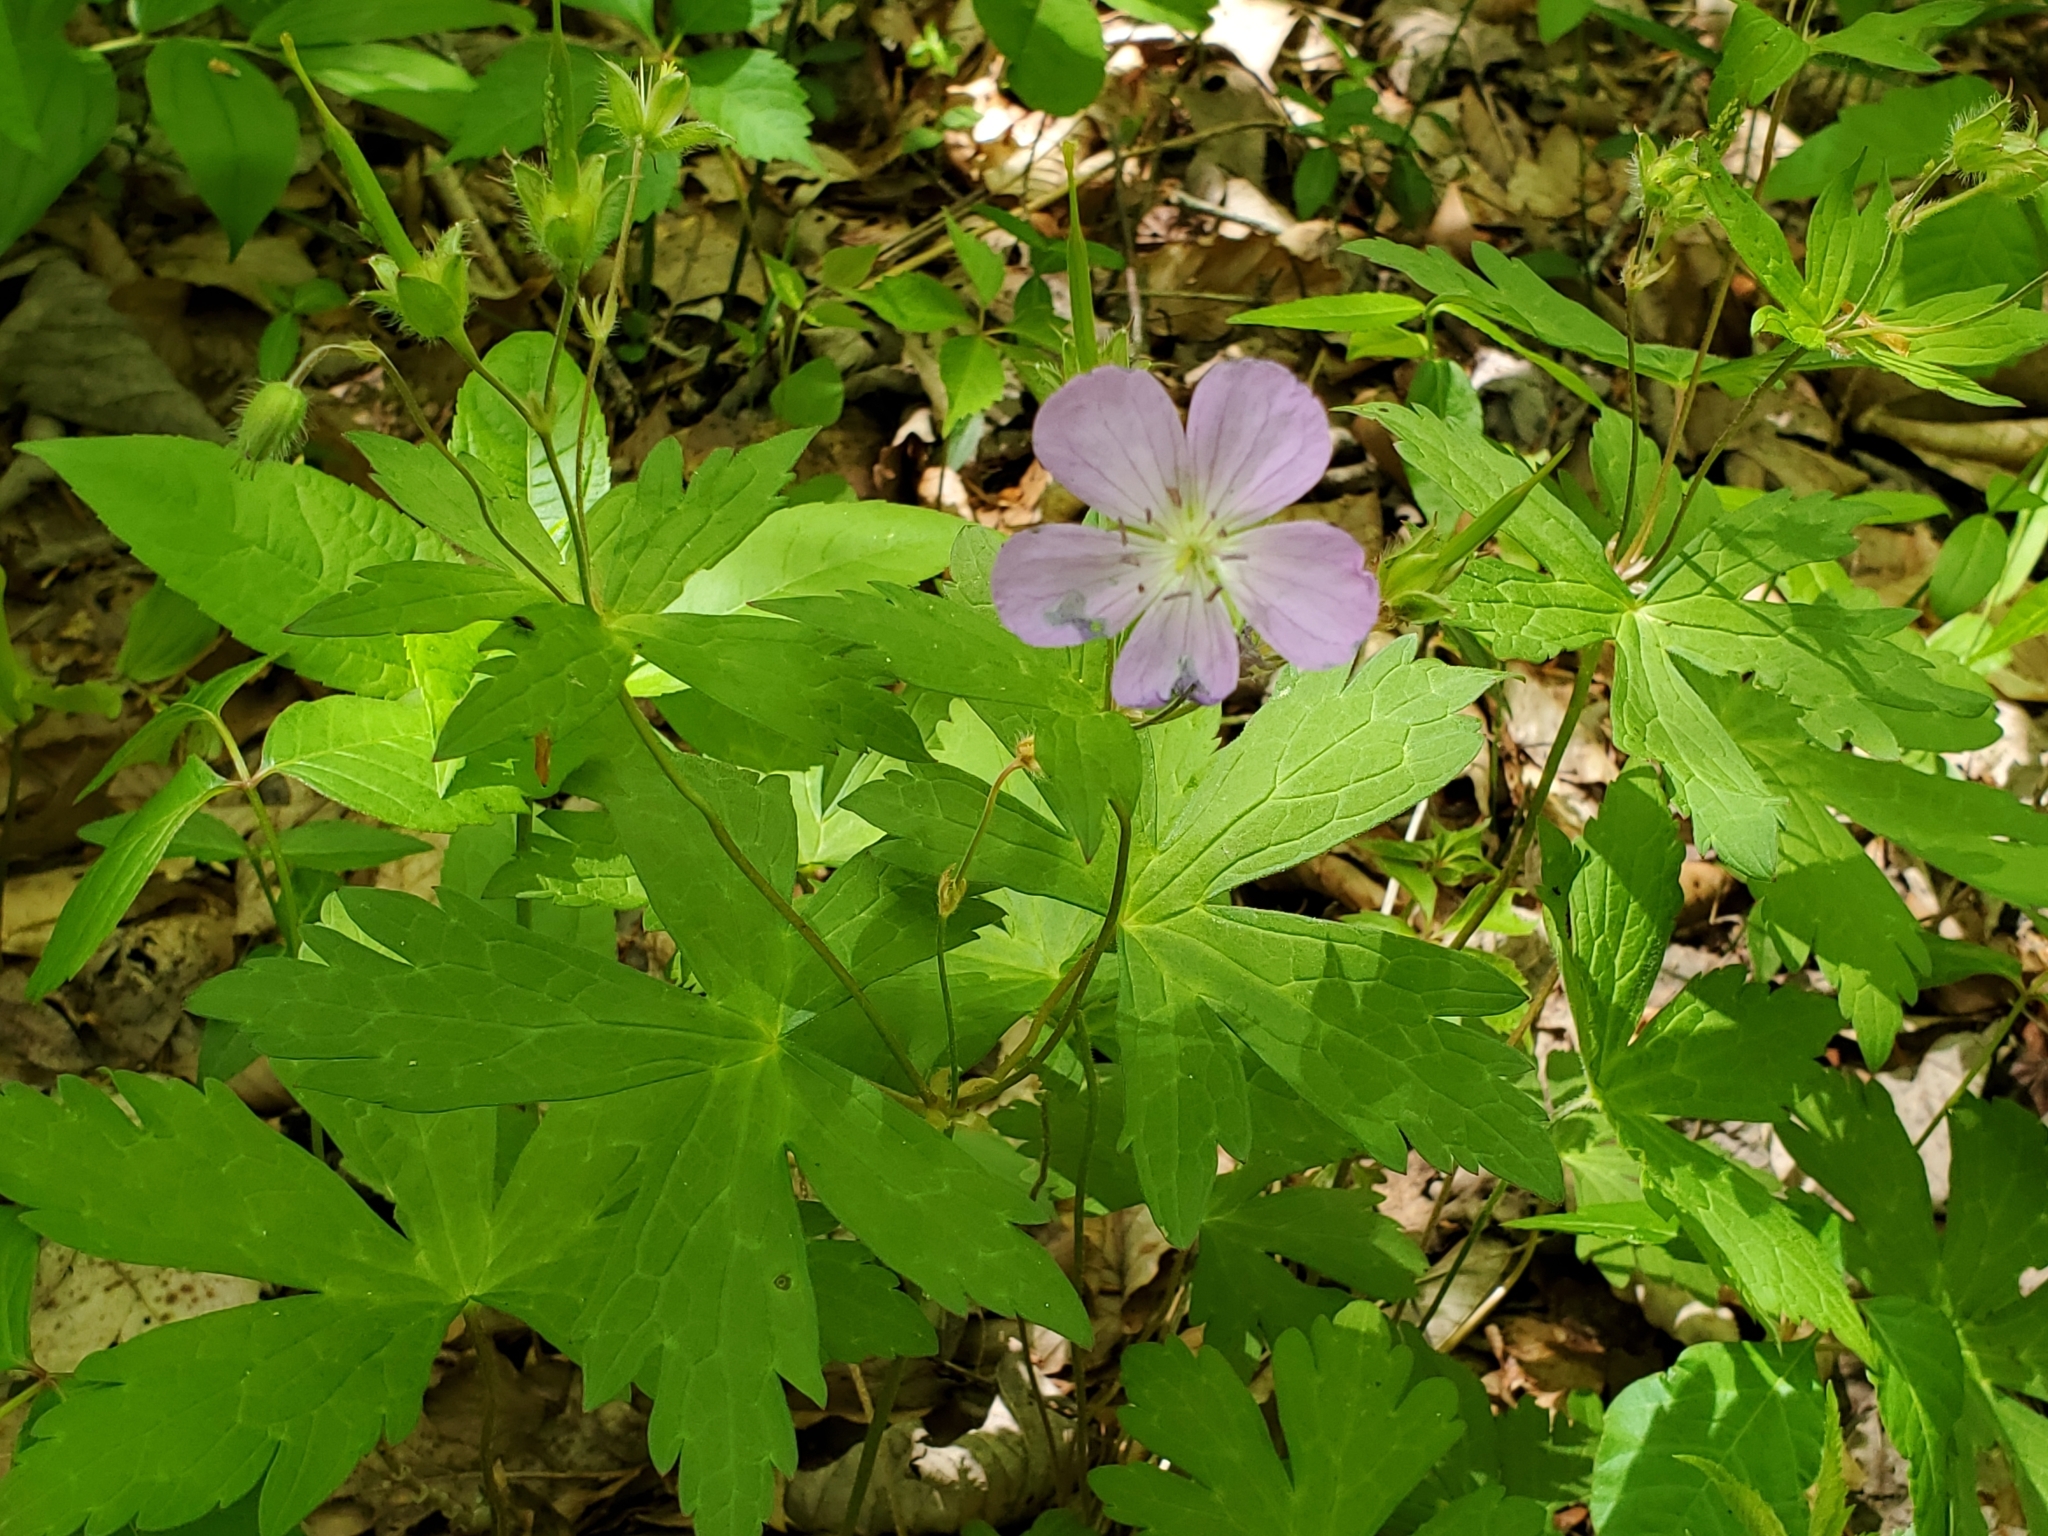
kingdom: Plantae
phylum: Tracheophyta
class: Magnoliopsida
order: Geraniales
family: Geraniaceae
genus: Geranium
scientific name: Geranium maculatum
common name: Spotted geranium
